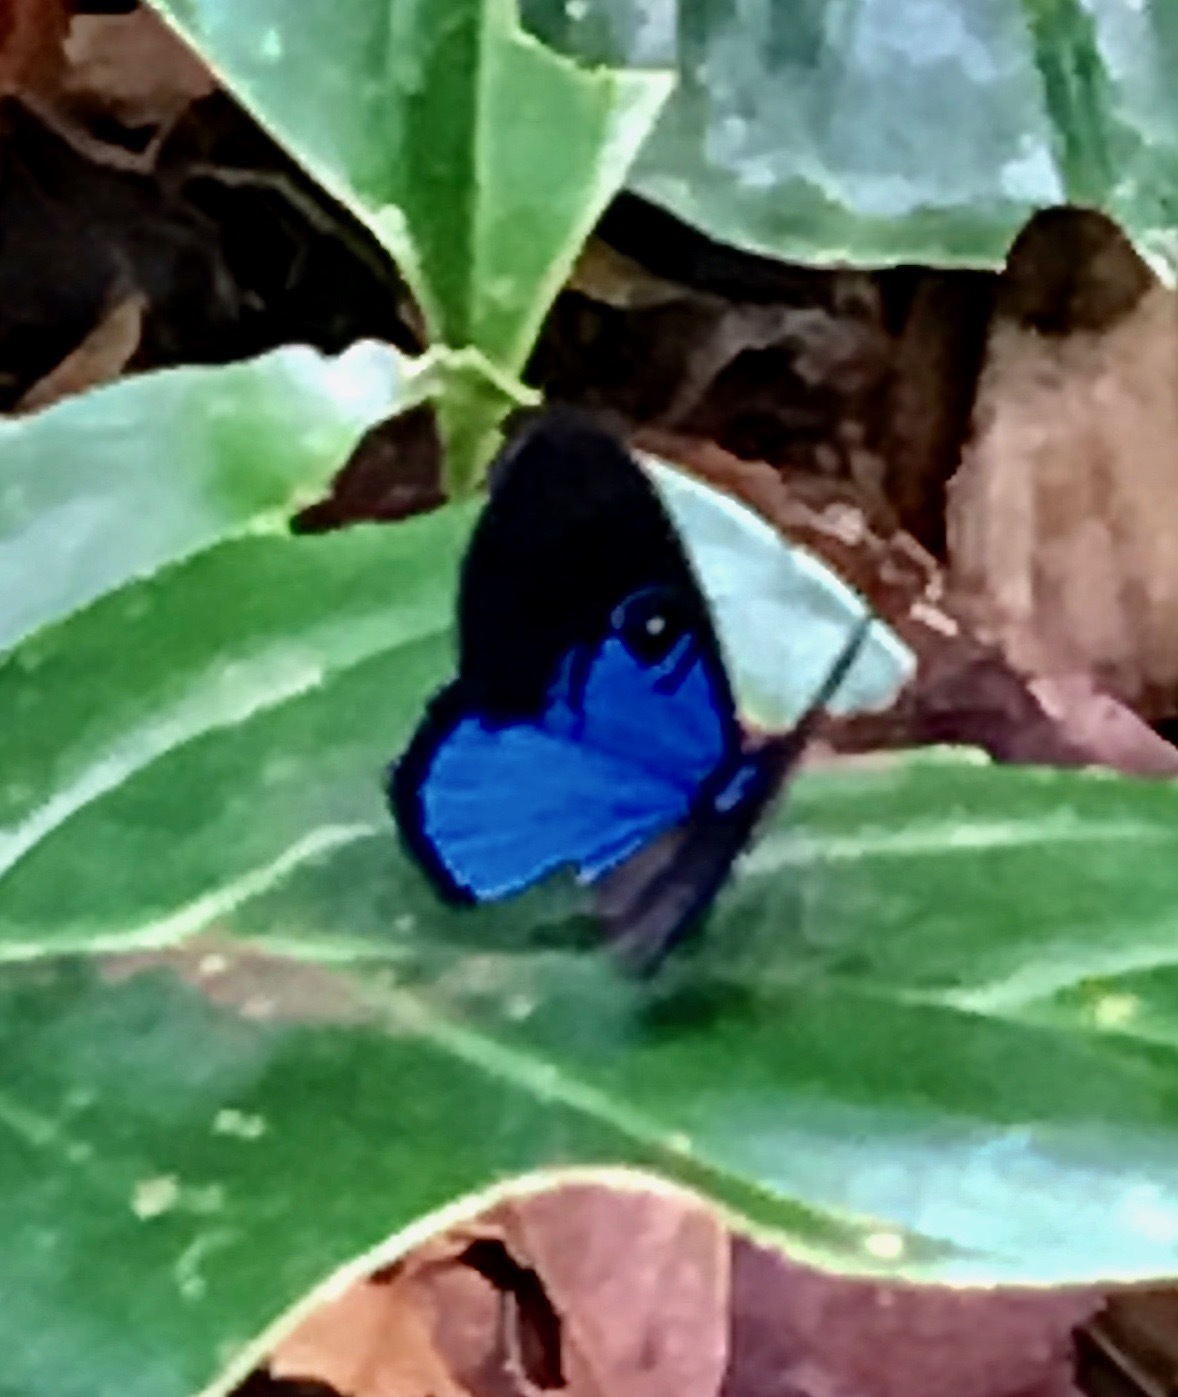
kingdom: Animalia
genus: Mesosemia
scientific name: Mesosemia asa
